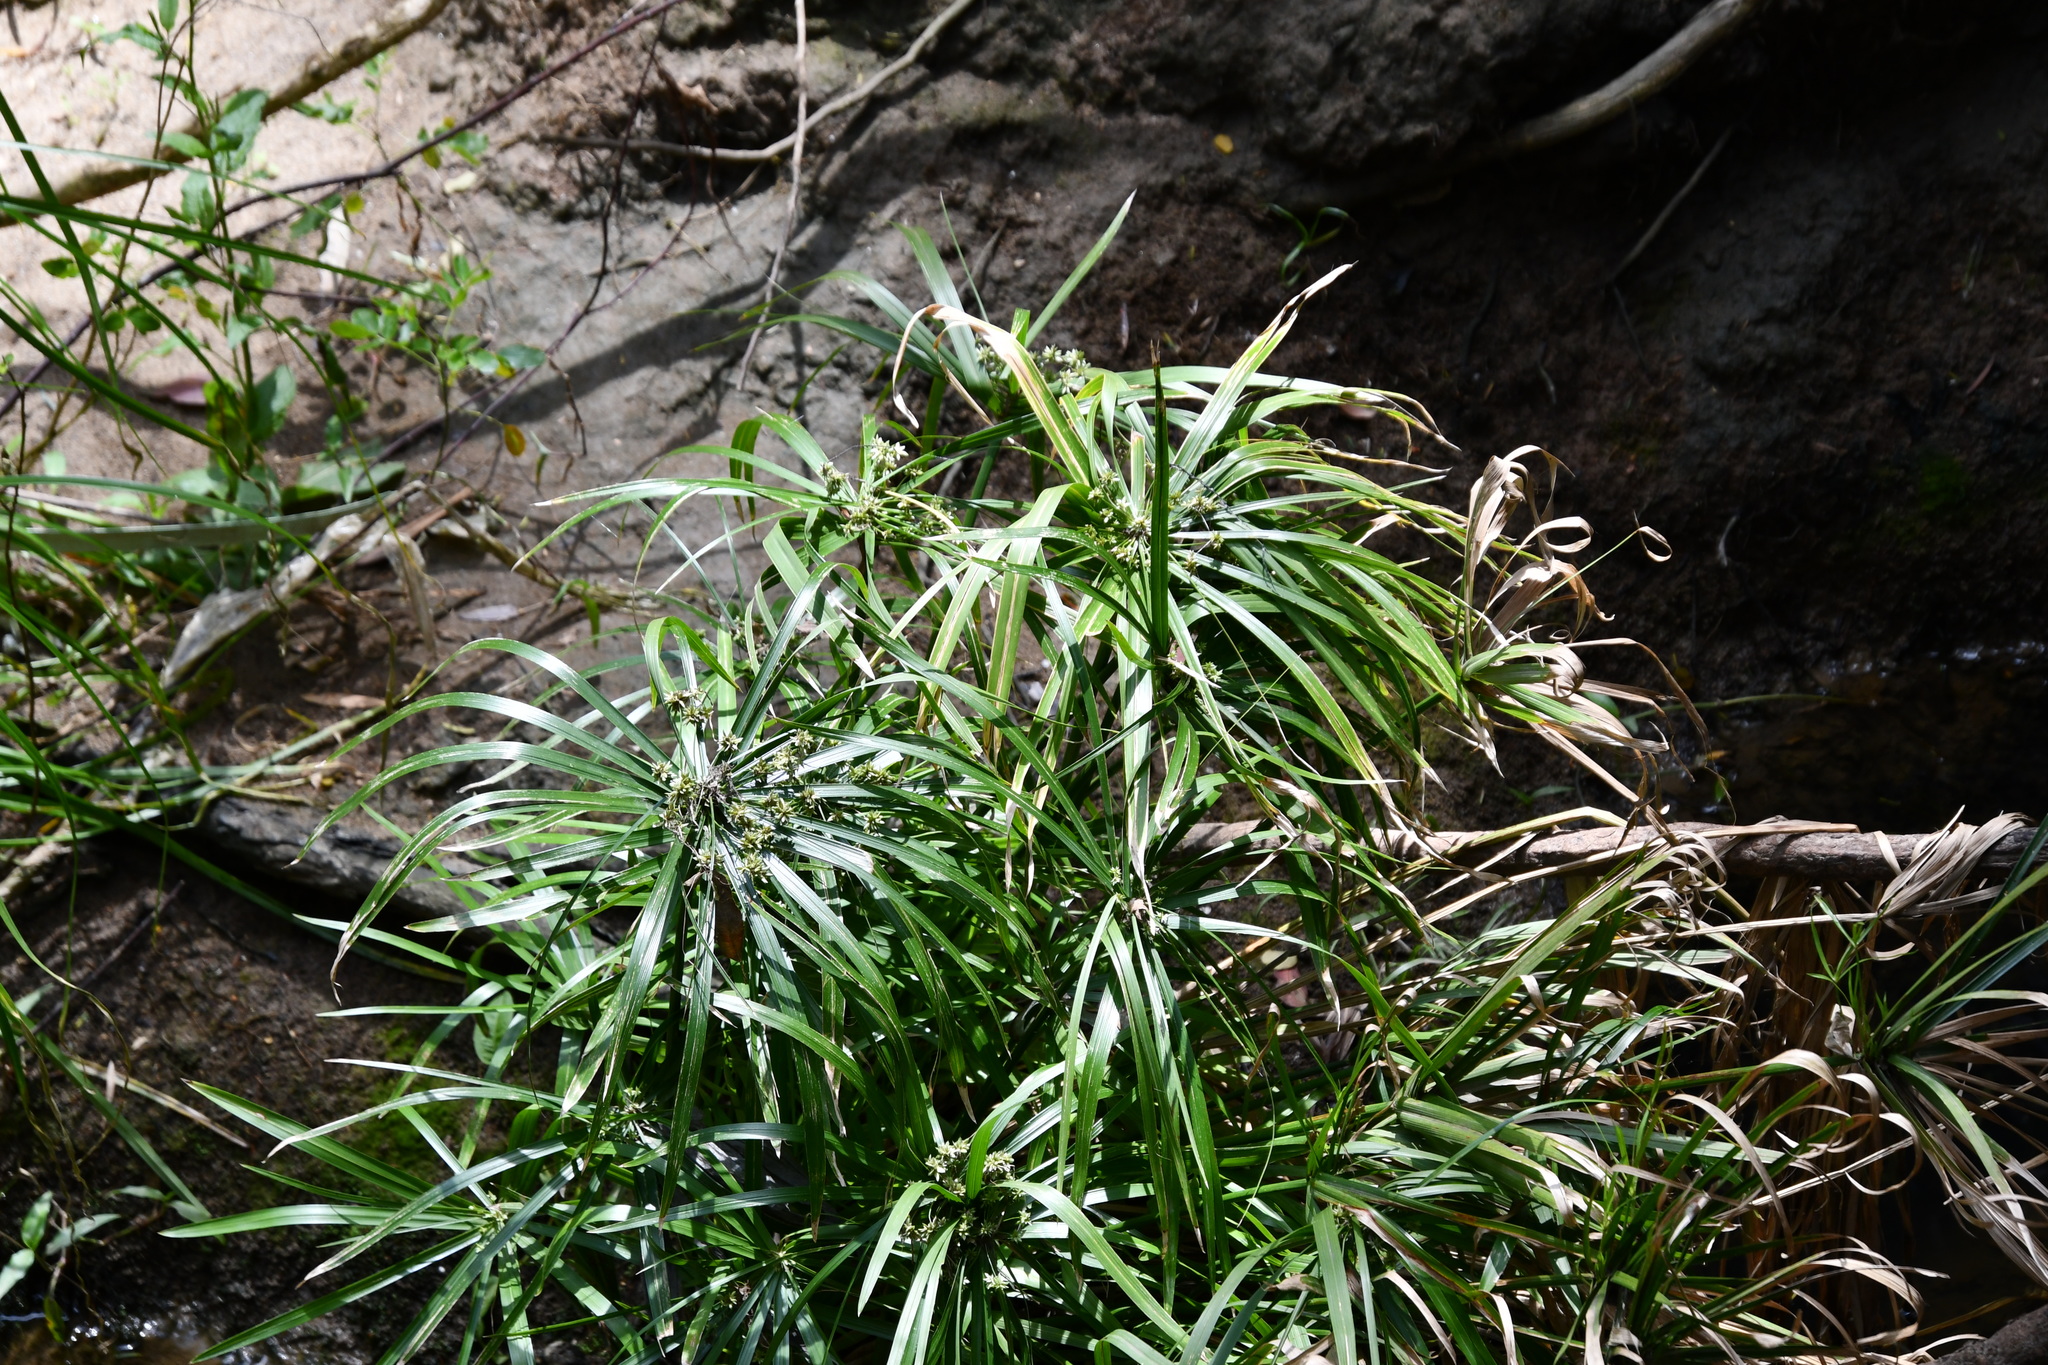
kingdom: Plantae
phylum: Tracheophyta
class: Liliopsida
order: Poales
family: Cyperaceae
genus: Cyperus
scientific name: Cyperus alternifolius
